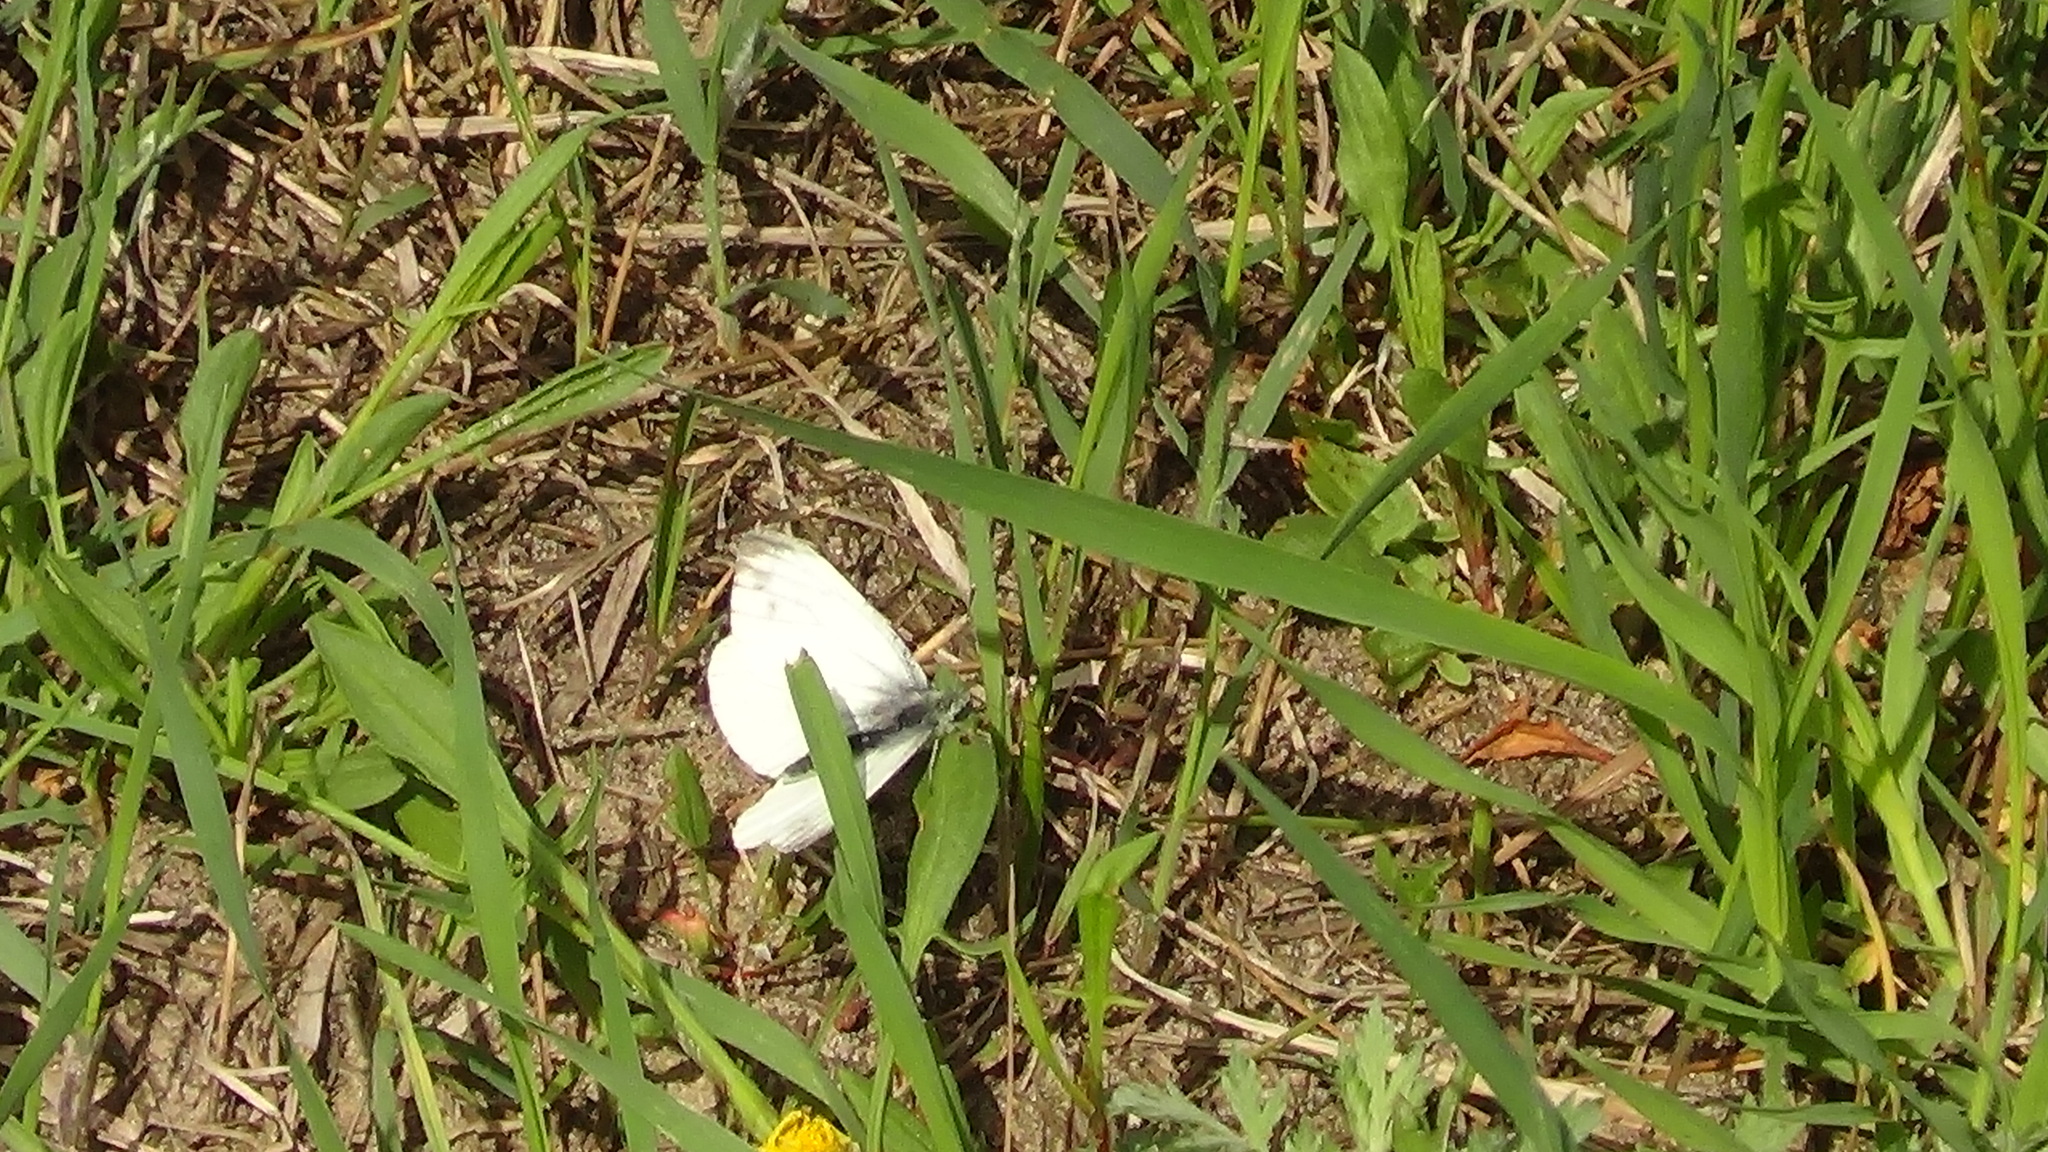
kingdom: Animalia
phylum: Arthropoda
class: Insecta
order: Lepidoptera
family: Pieridae
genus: Pieris
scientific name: Pieris napi
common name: Green-veined white
